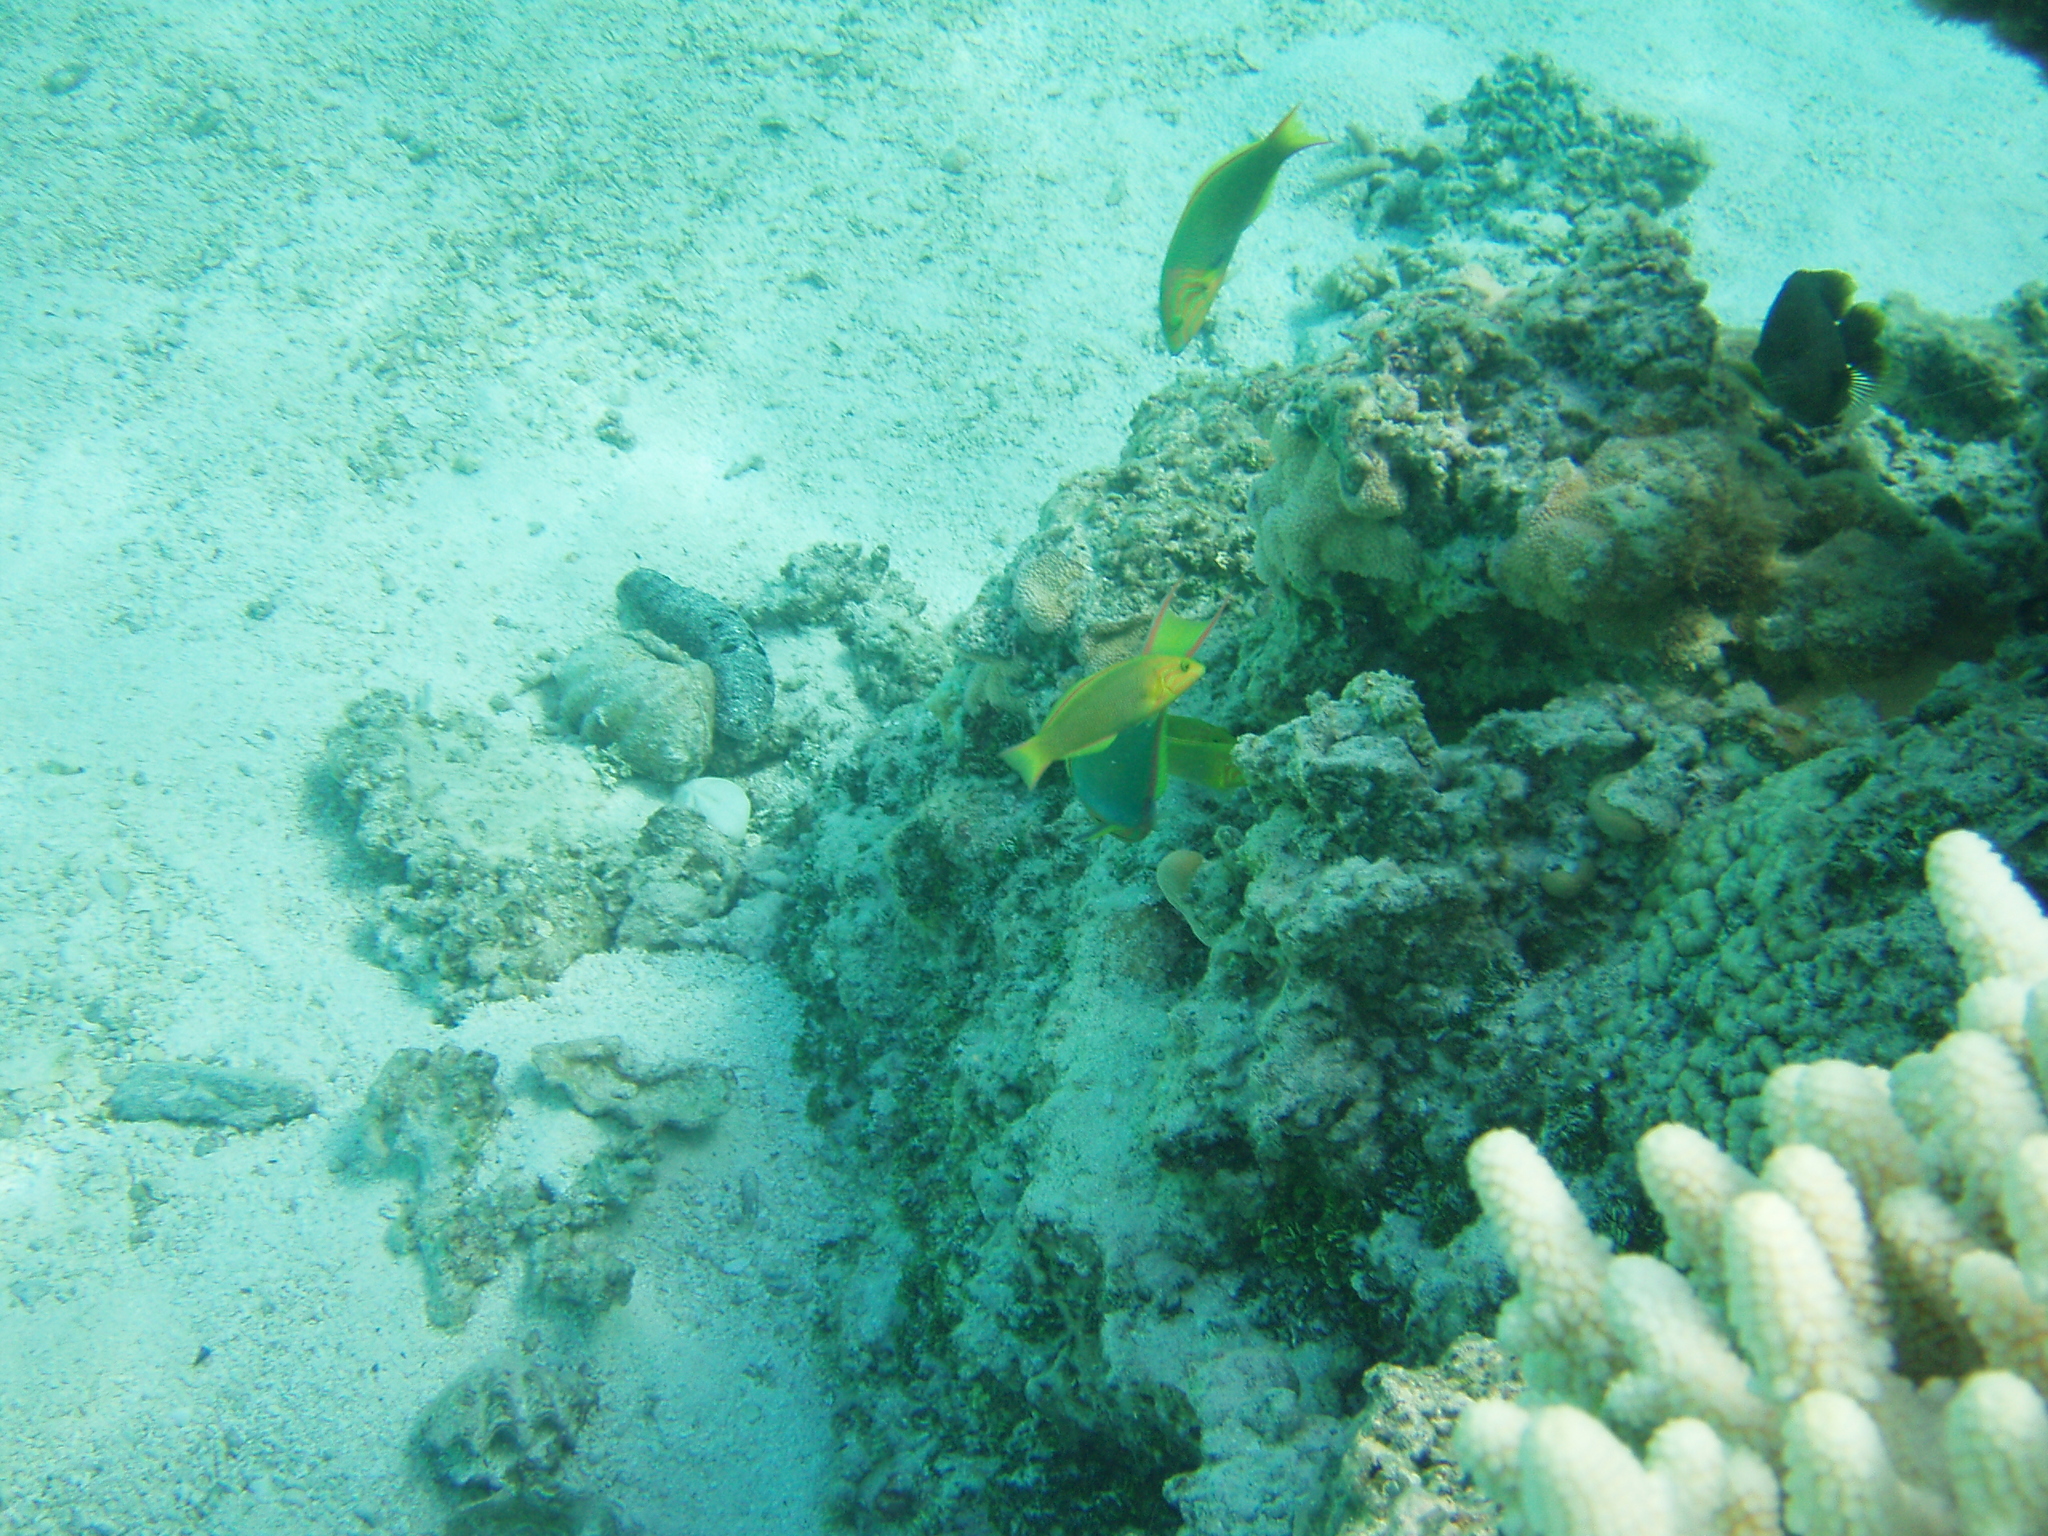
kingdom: Animalia
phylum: Chordata
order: Perciformes
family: Labridae
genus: Thalassoma
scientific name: Thalassoma lutescens
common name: Green moon wrasse
